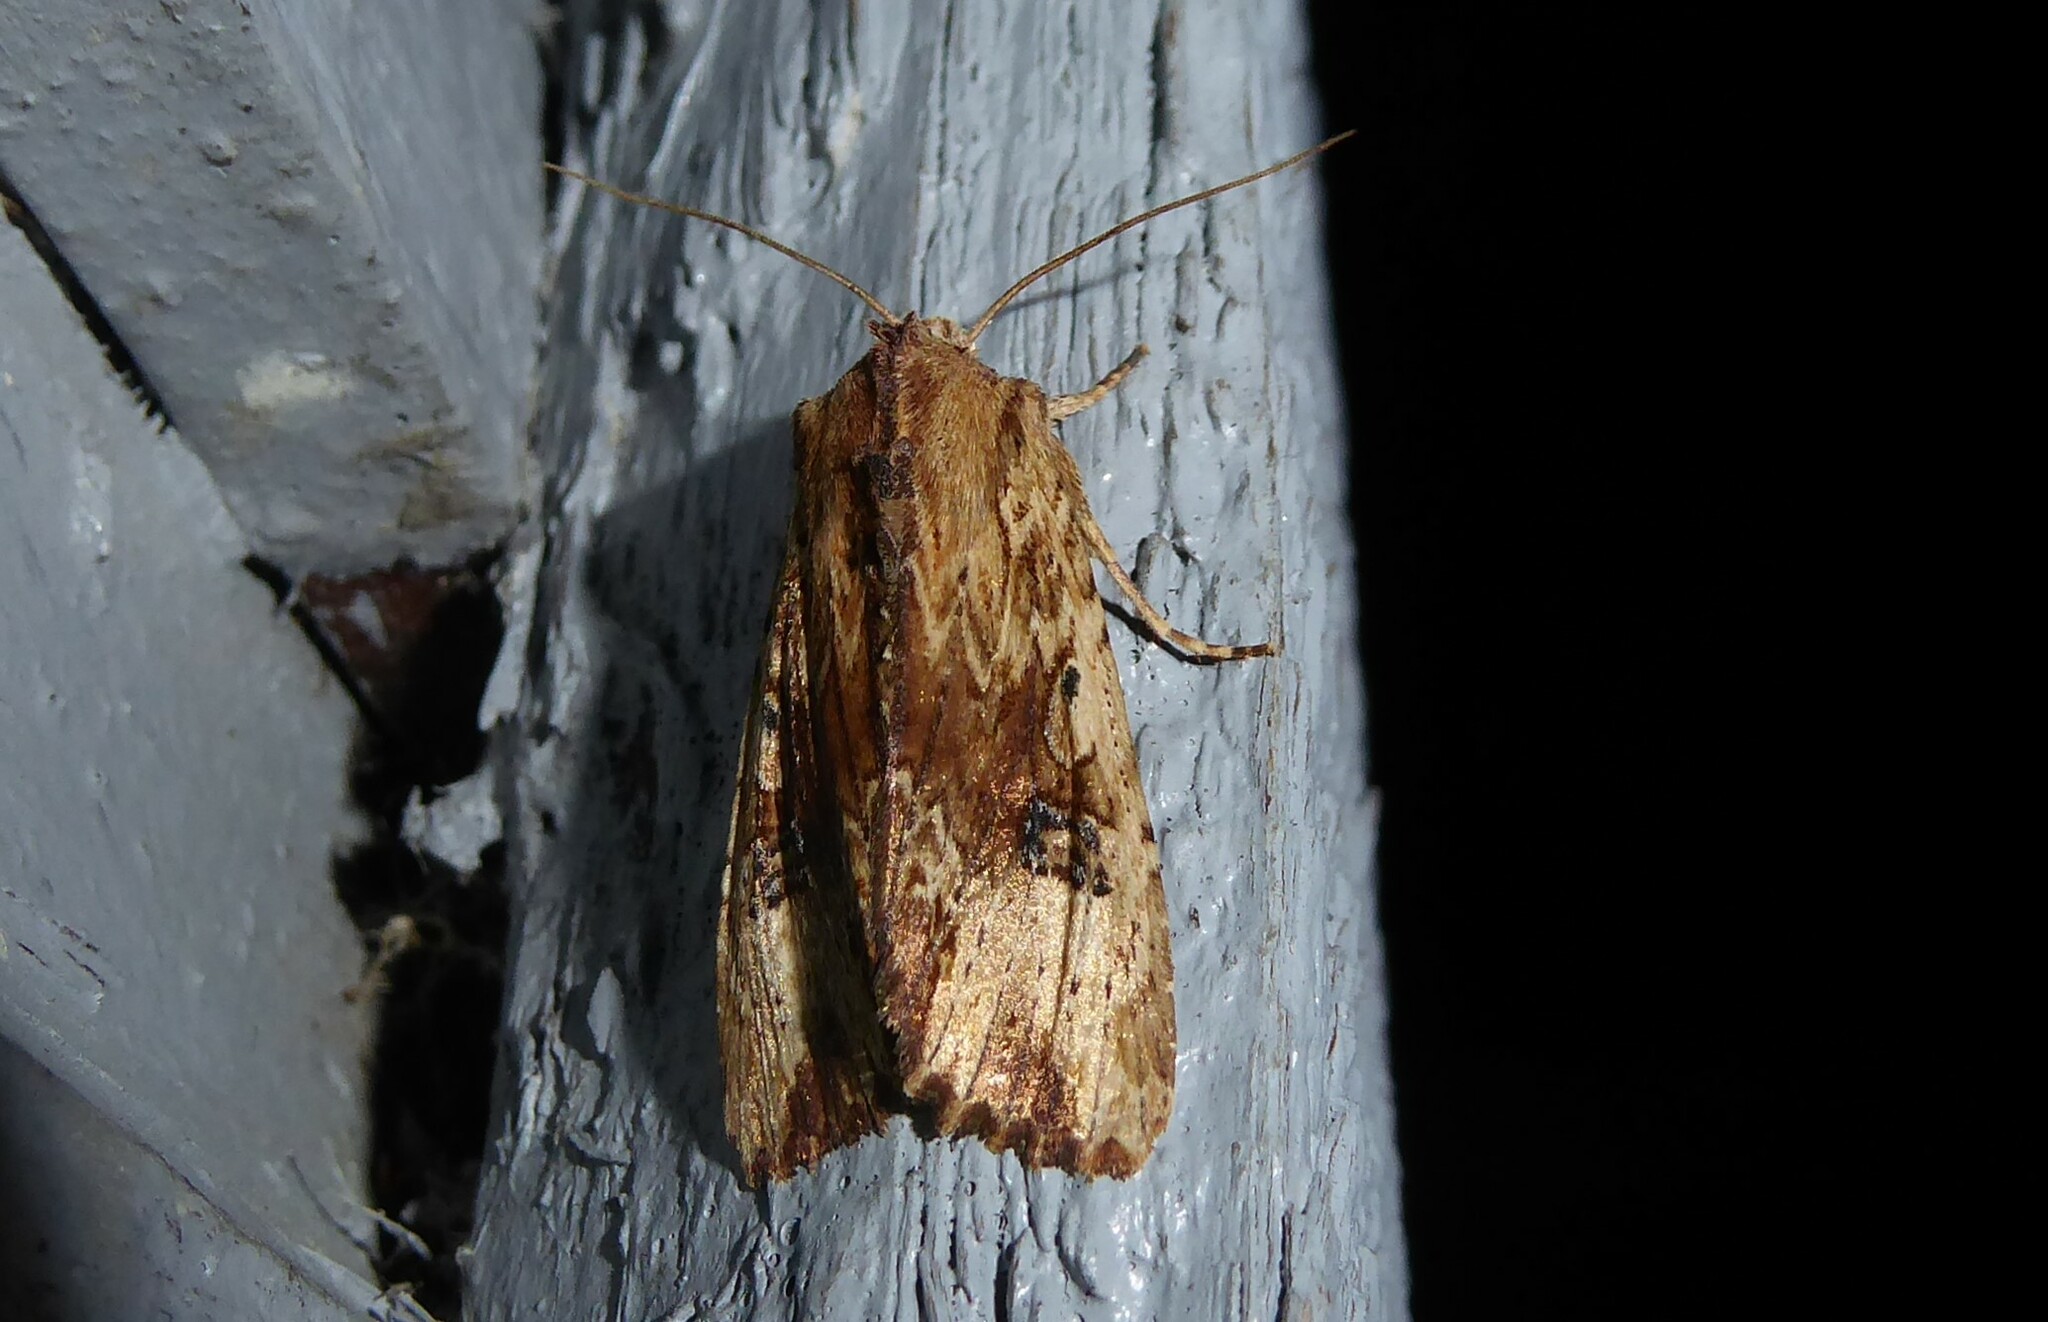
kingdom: Animalia
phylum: Arthropoda
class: Insecta
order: Lepidoptera
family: Noctuidae
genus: Ichneutica
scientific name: Ichneutica
